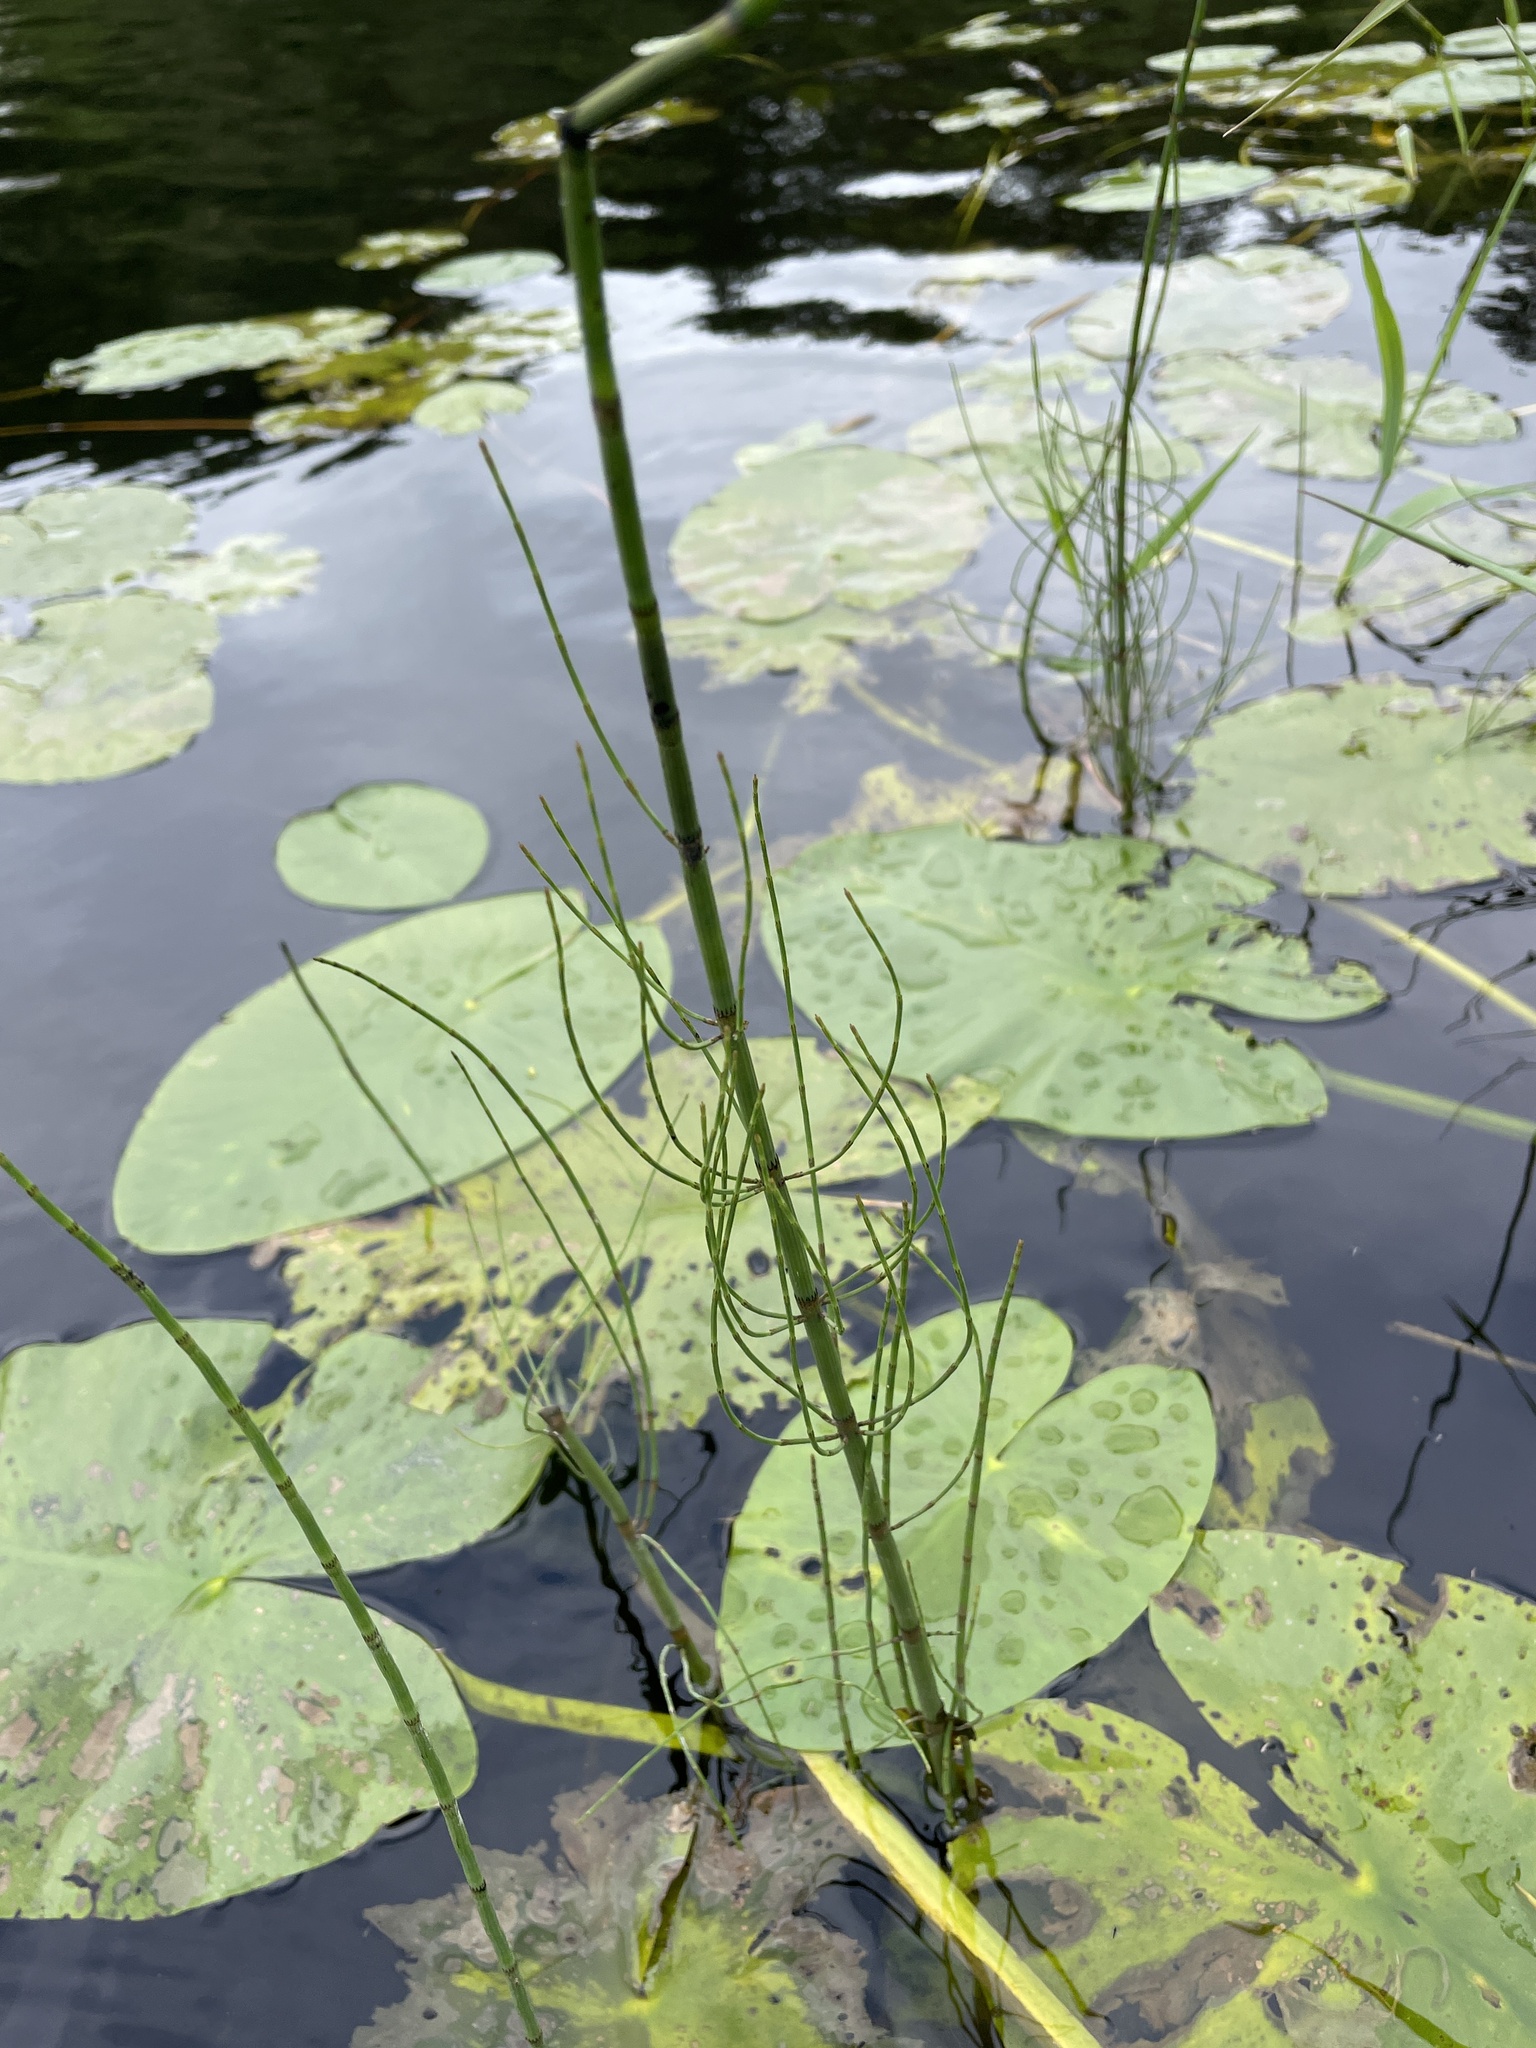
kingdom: Plantae
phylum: Tracheophyta
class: Polypodiopsida
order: Equisetales
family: Equisetaceae
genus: Equisetum
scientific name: Equisetum fluviatile
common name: Water horsetail
